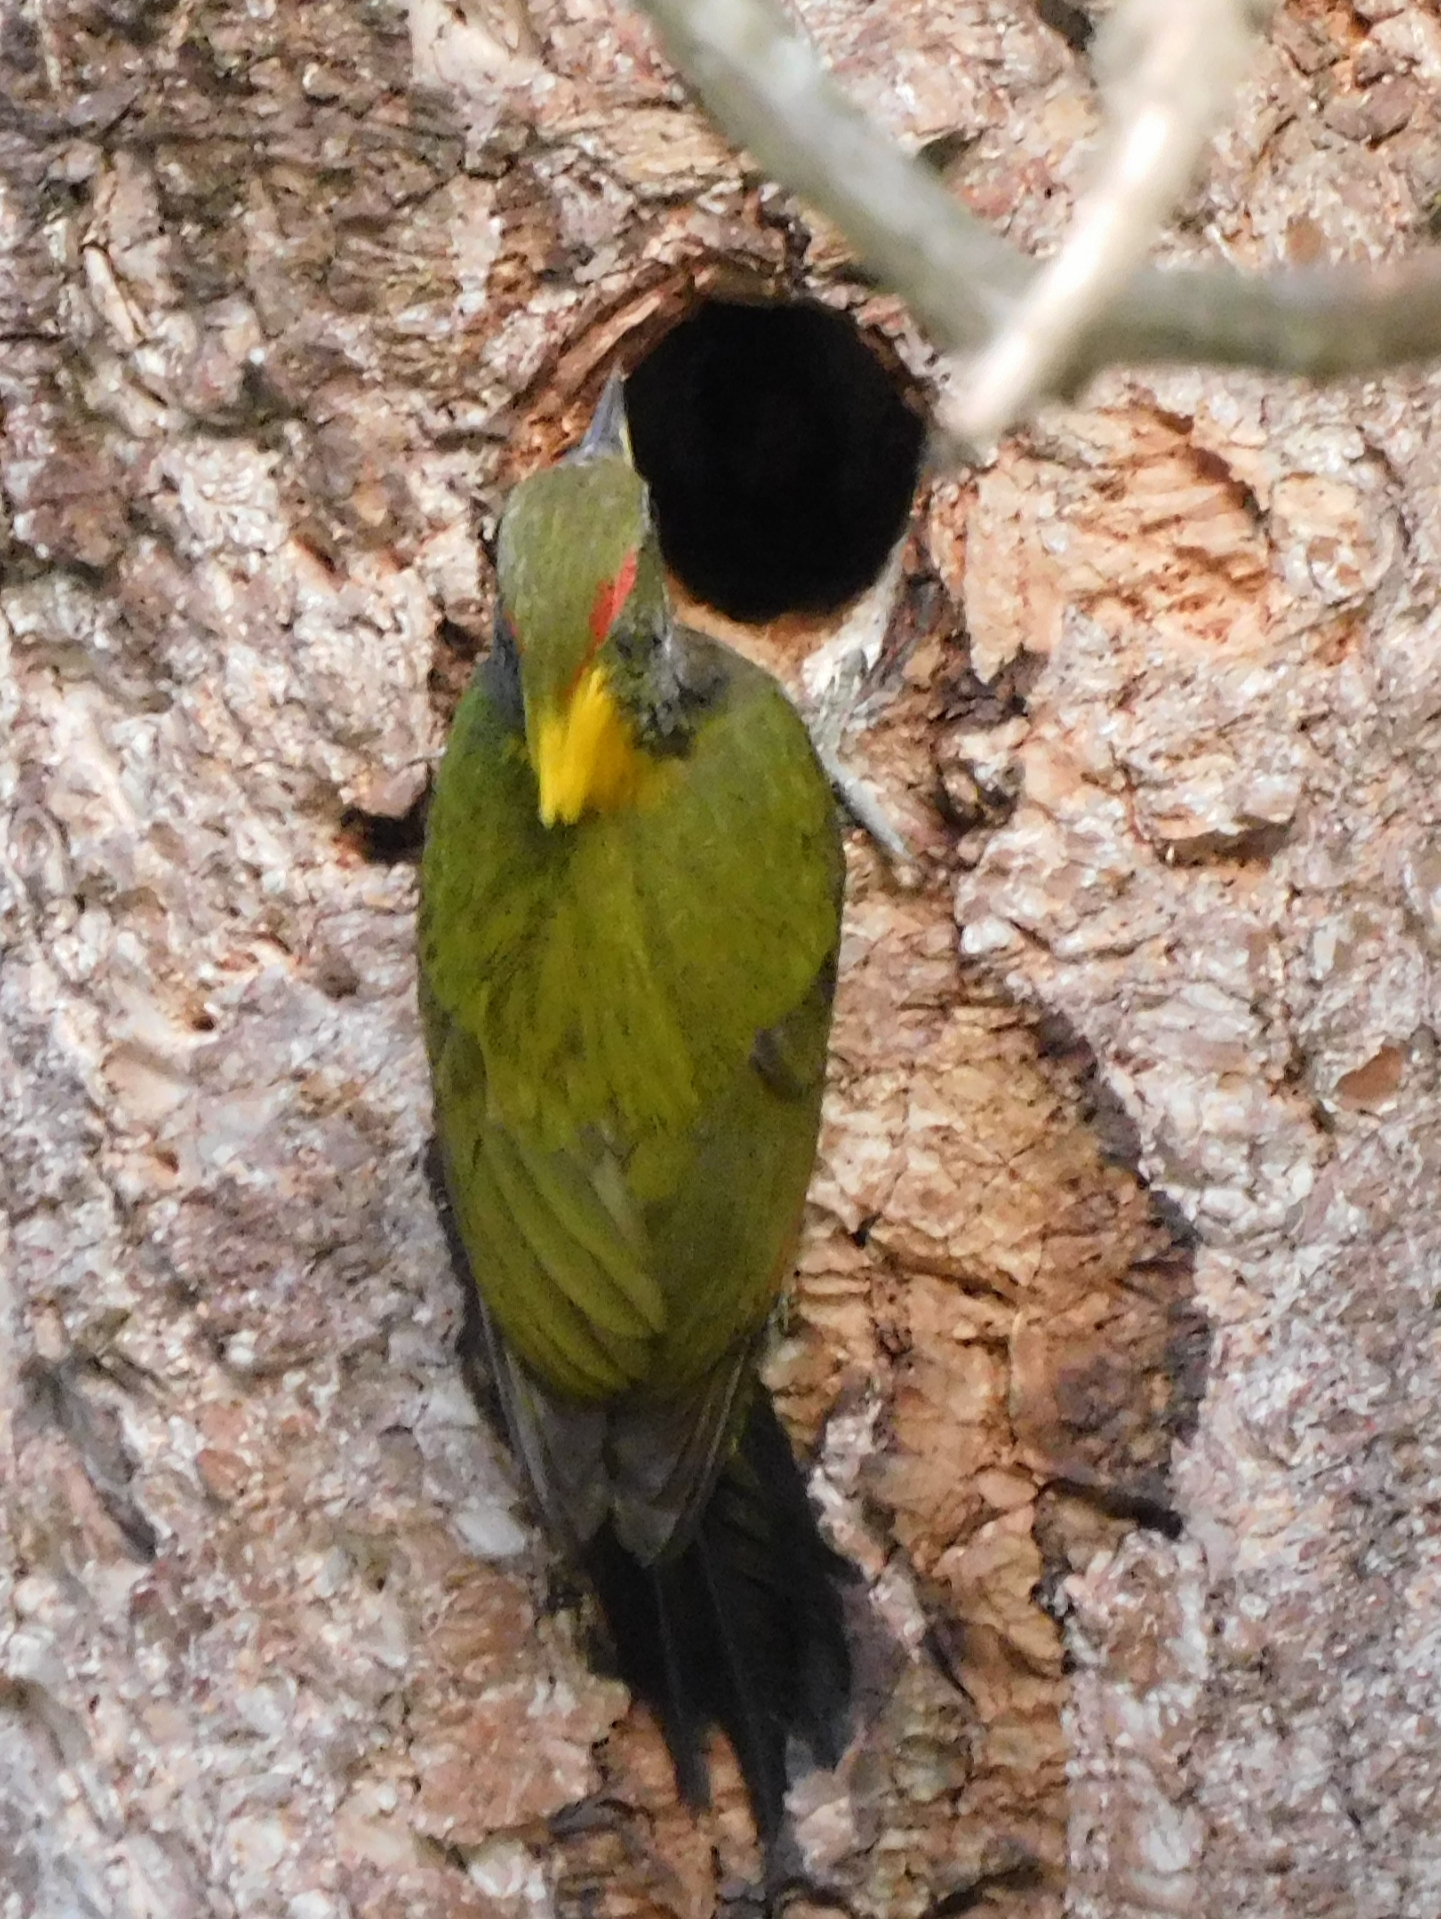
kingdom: Animalia
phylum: Chordata
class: Aves
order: Piciformes
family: Picidae
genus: Picus
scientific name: Picus chlorolophus
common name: Lesser yellownape
